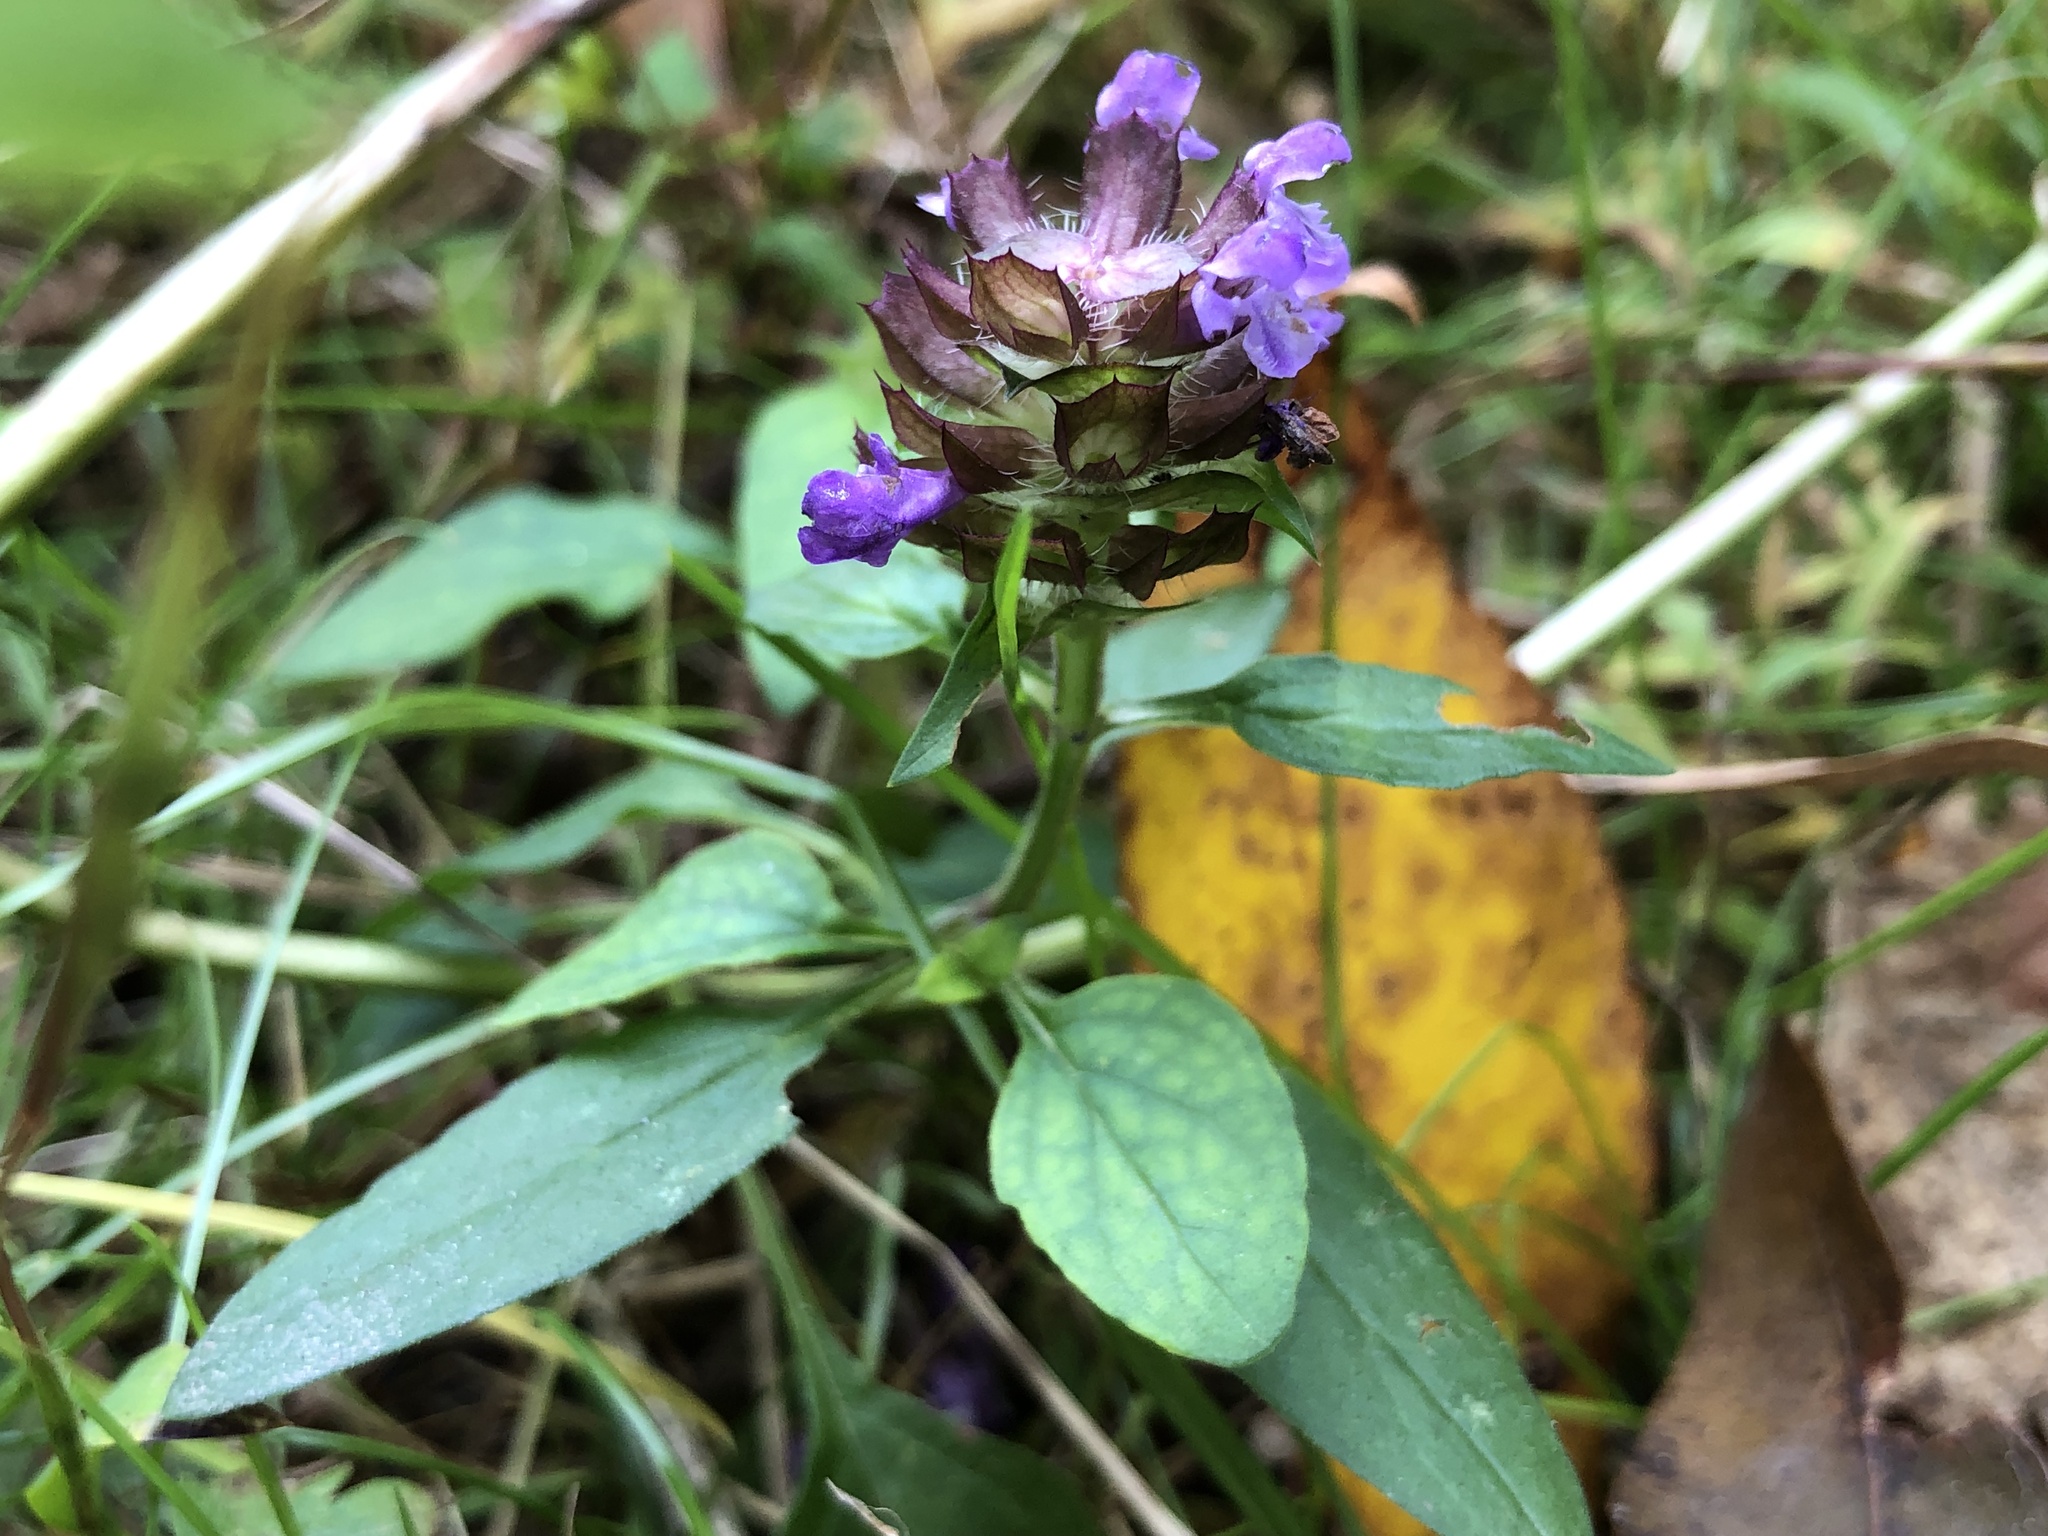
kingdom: Plantae
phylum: Tracheophyta
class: Magnoliopsida
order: Lamiales
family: Lamiaceae
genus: Prunella
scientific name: Prunella vulgaris
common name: Heal-all
